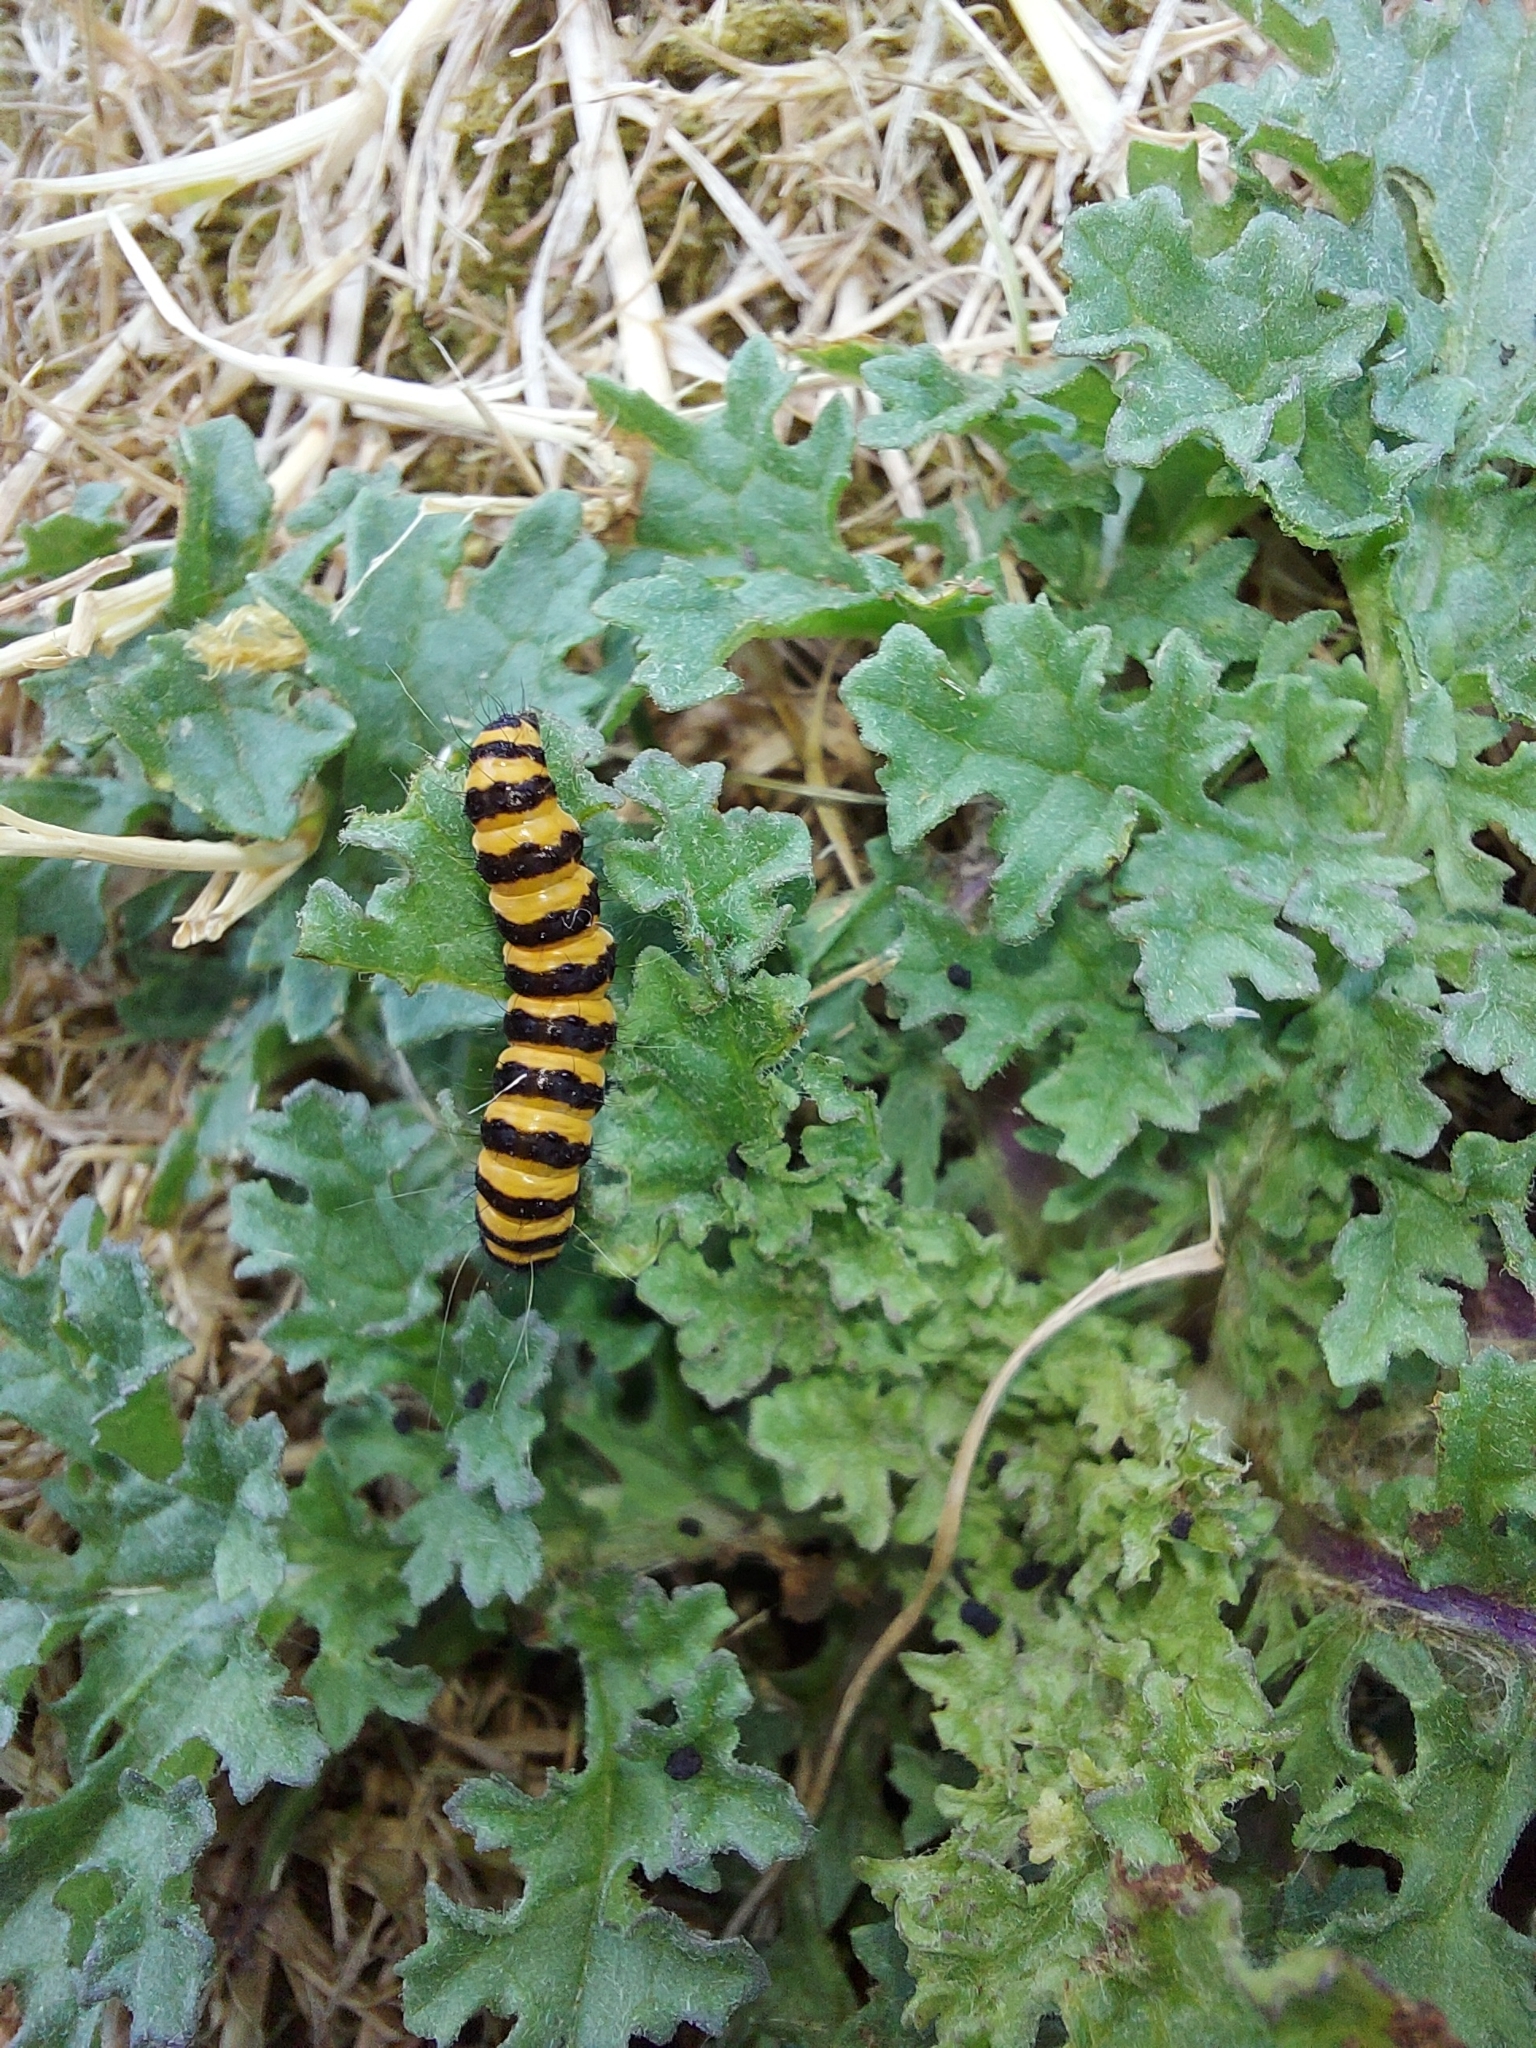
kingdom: Animalia
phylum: Arthropoda
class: Insecta
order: Lepidoptera
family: Erebidae
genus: Tyria
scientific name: Tyria jacobaeae
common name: Cinnabar
